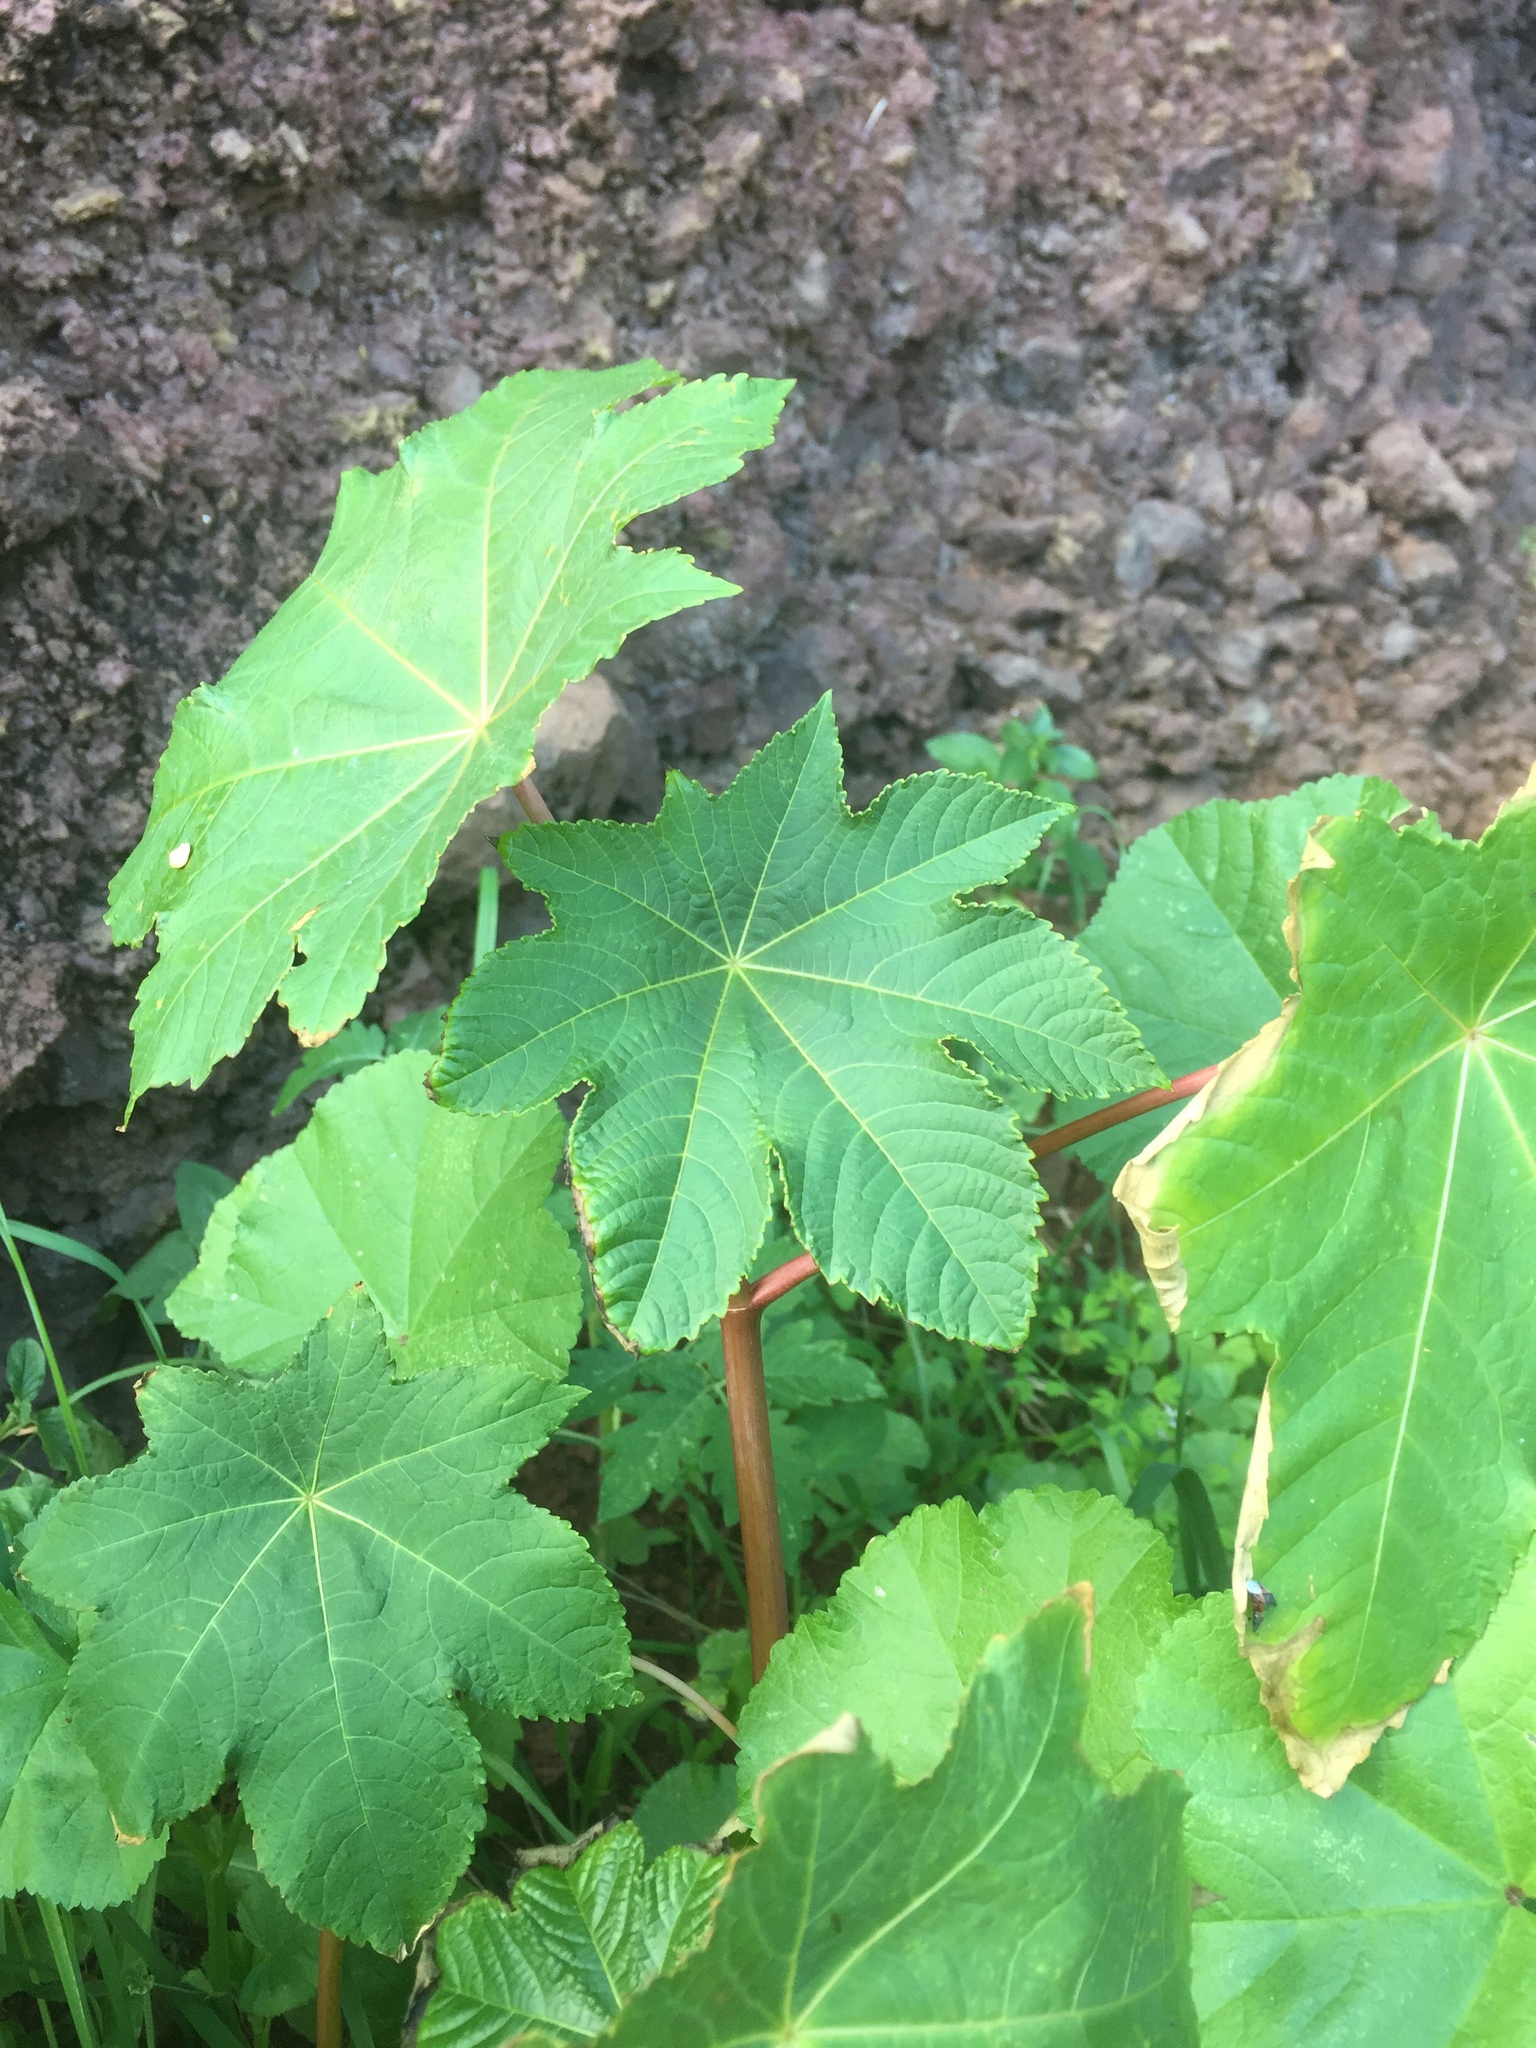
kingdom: Plantae
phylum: Tracheophyta
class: Magnoliopsida
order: Malpighiales
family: Euphorbiaceae
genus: Ricinus
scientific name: Ricinus communis
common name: Castor-oil-plant
